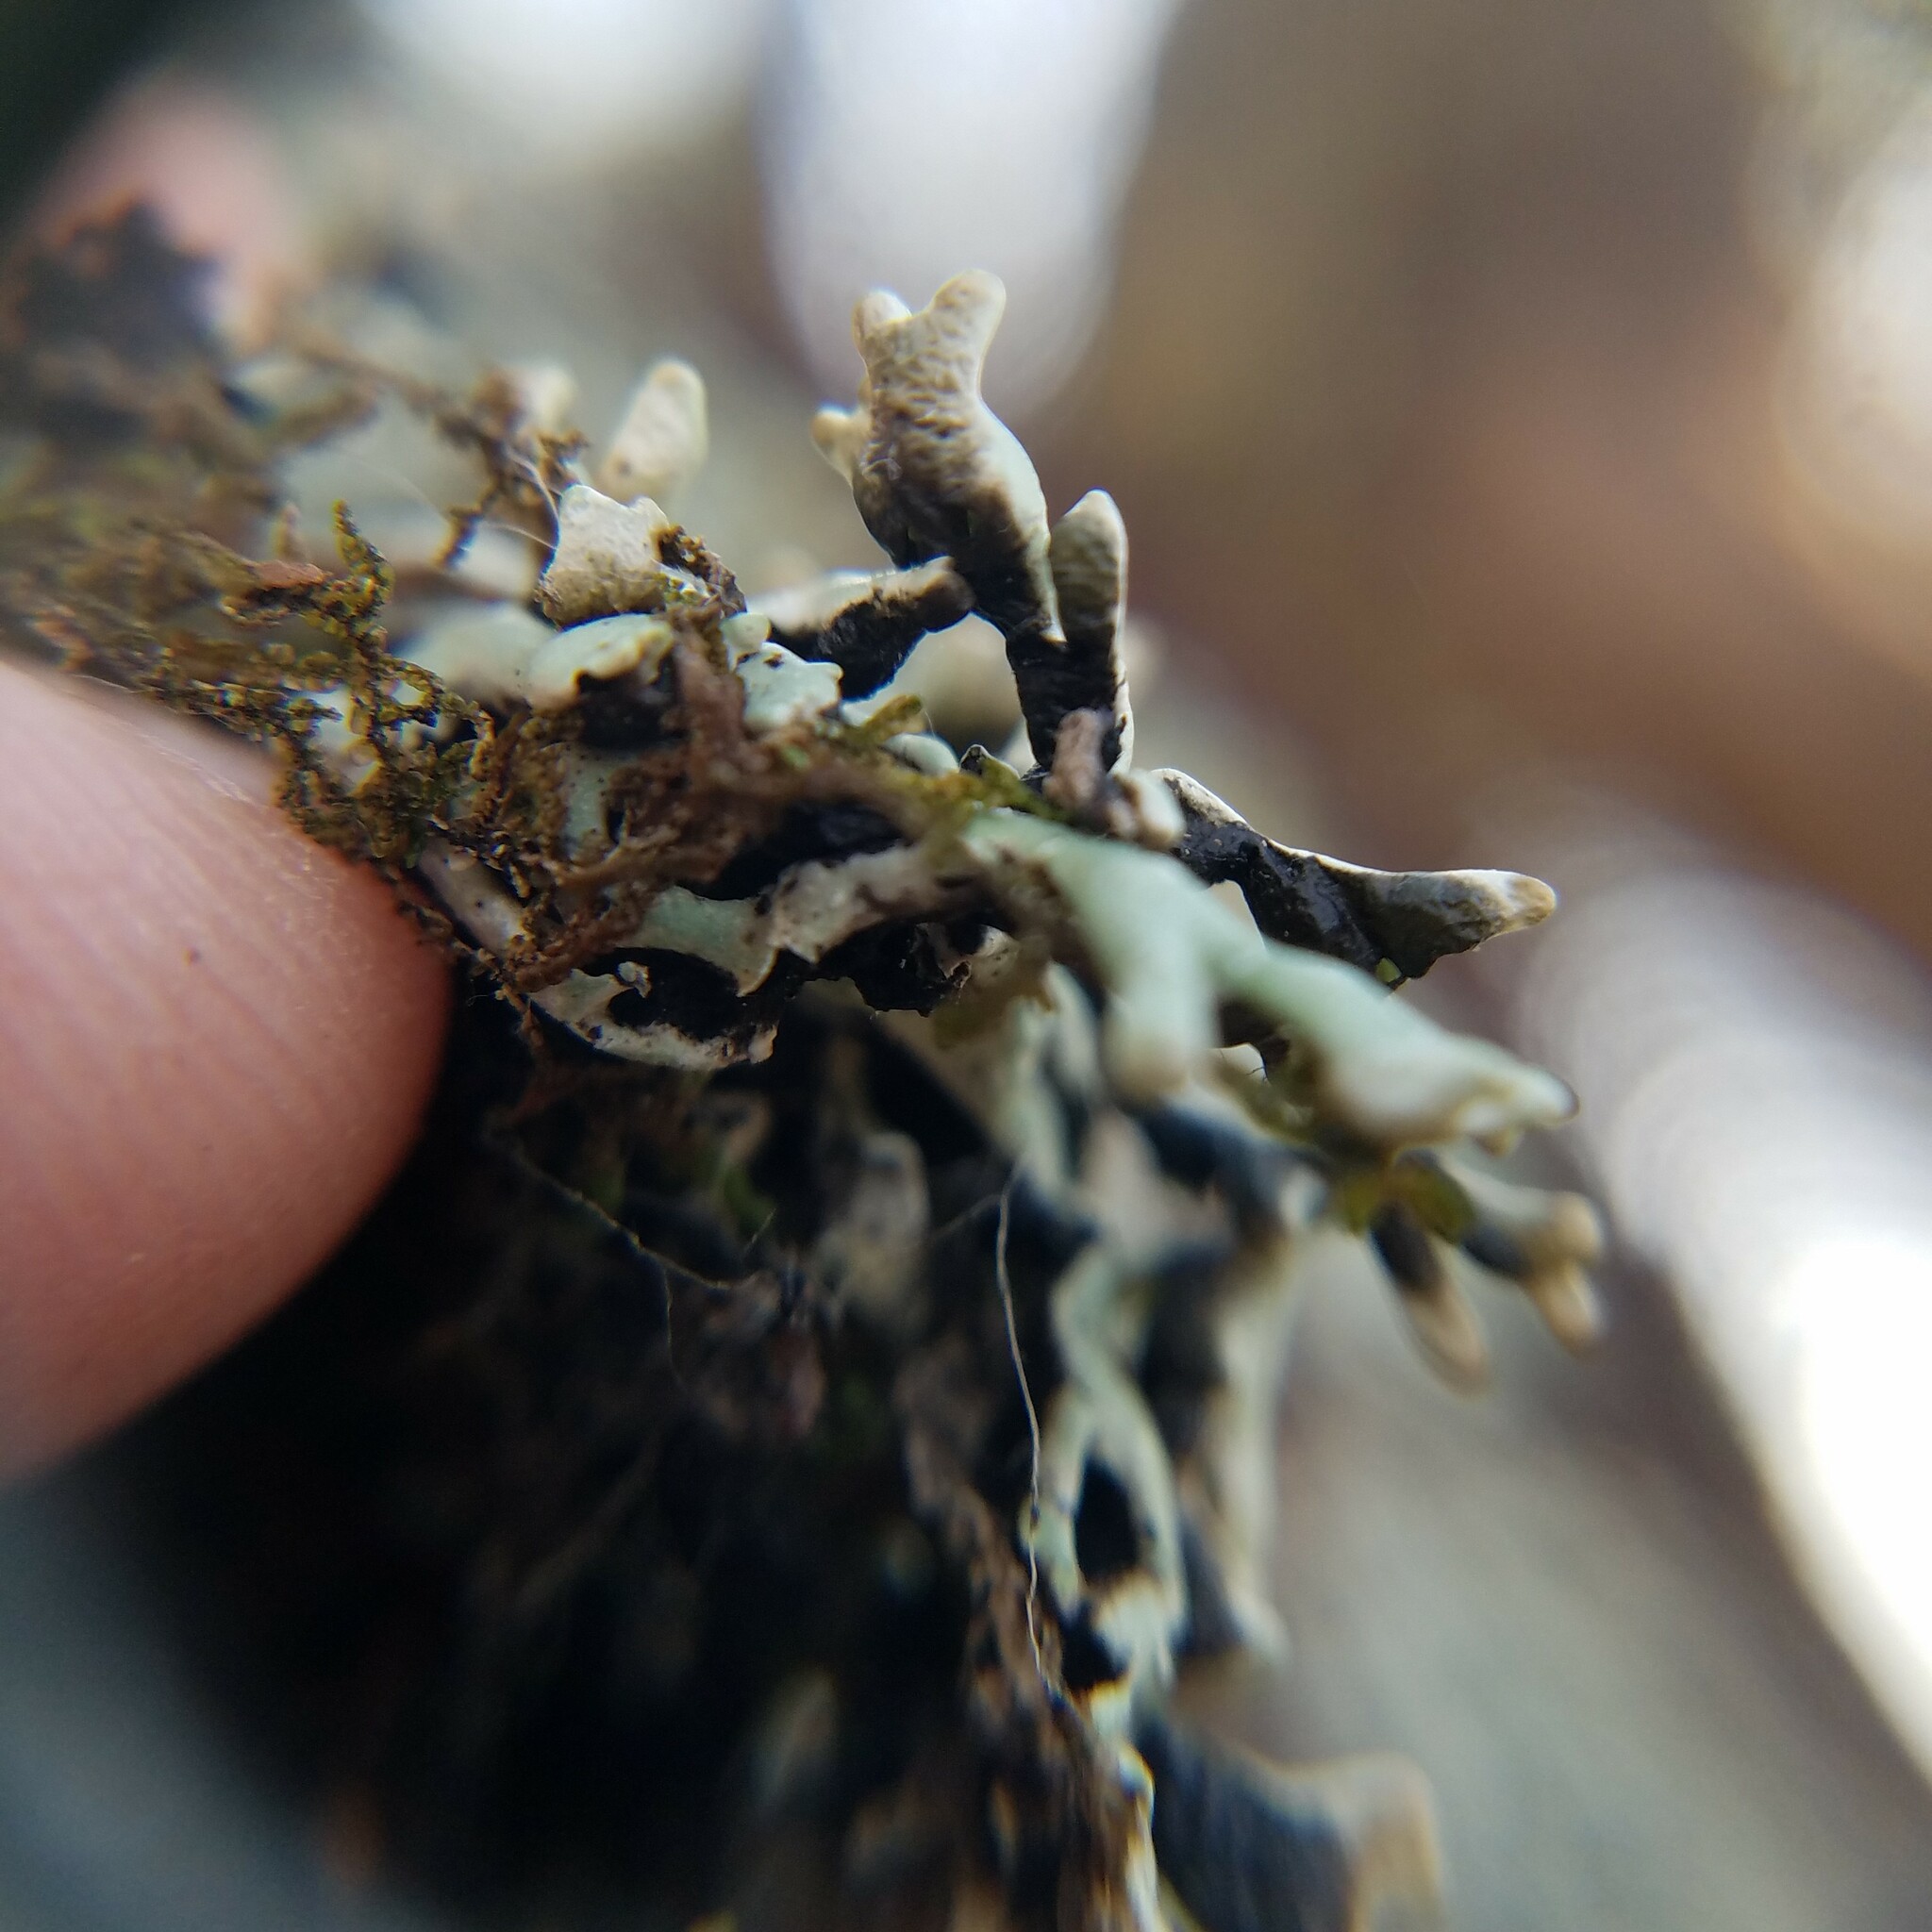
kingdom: Fungi
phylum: Ascomycota
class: Lecanoromycetes
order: Lecanorales
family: Parmeliaceae
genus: Hypogymnia
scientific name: Hypogymnia krogiae
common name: Freckled tube lichen
